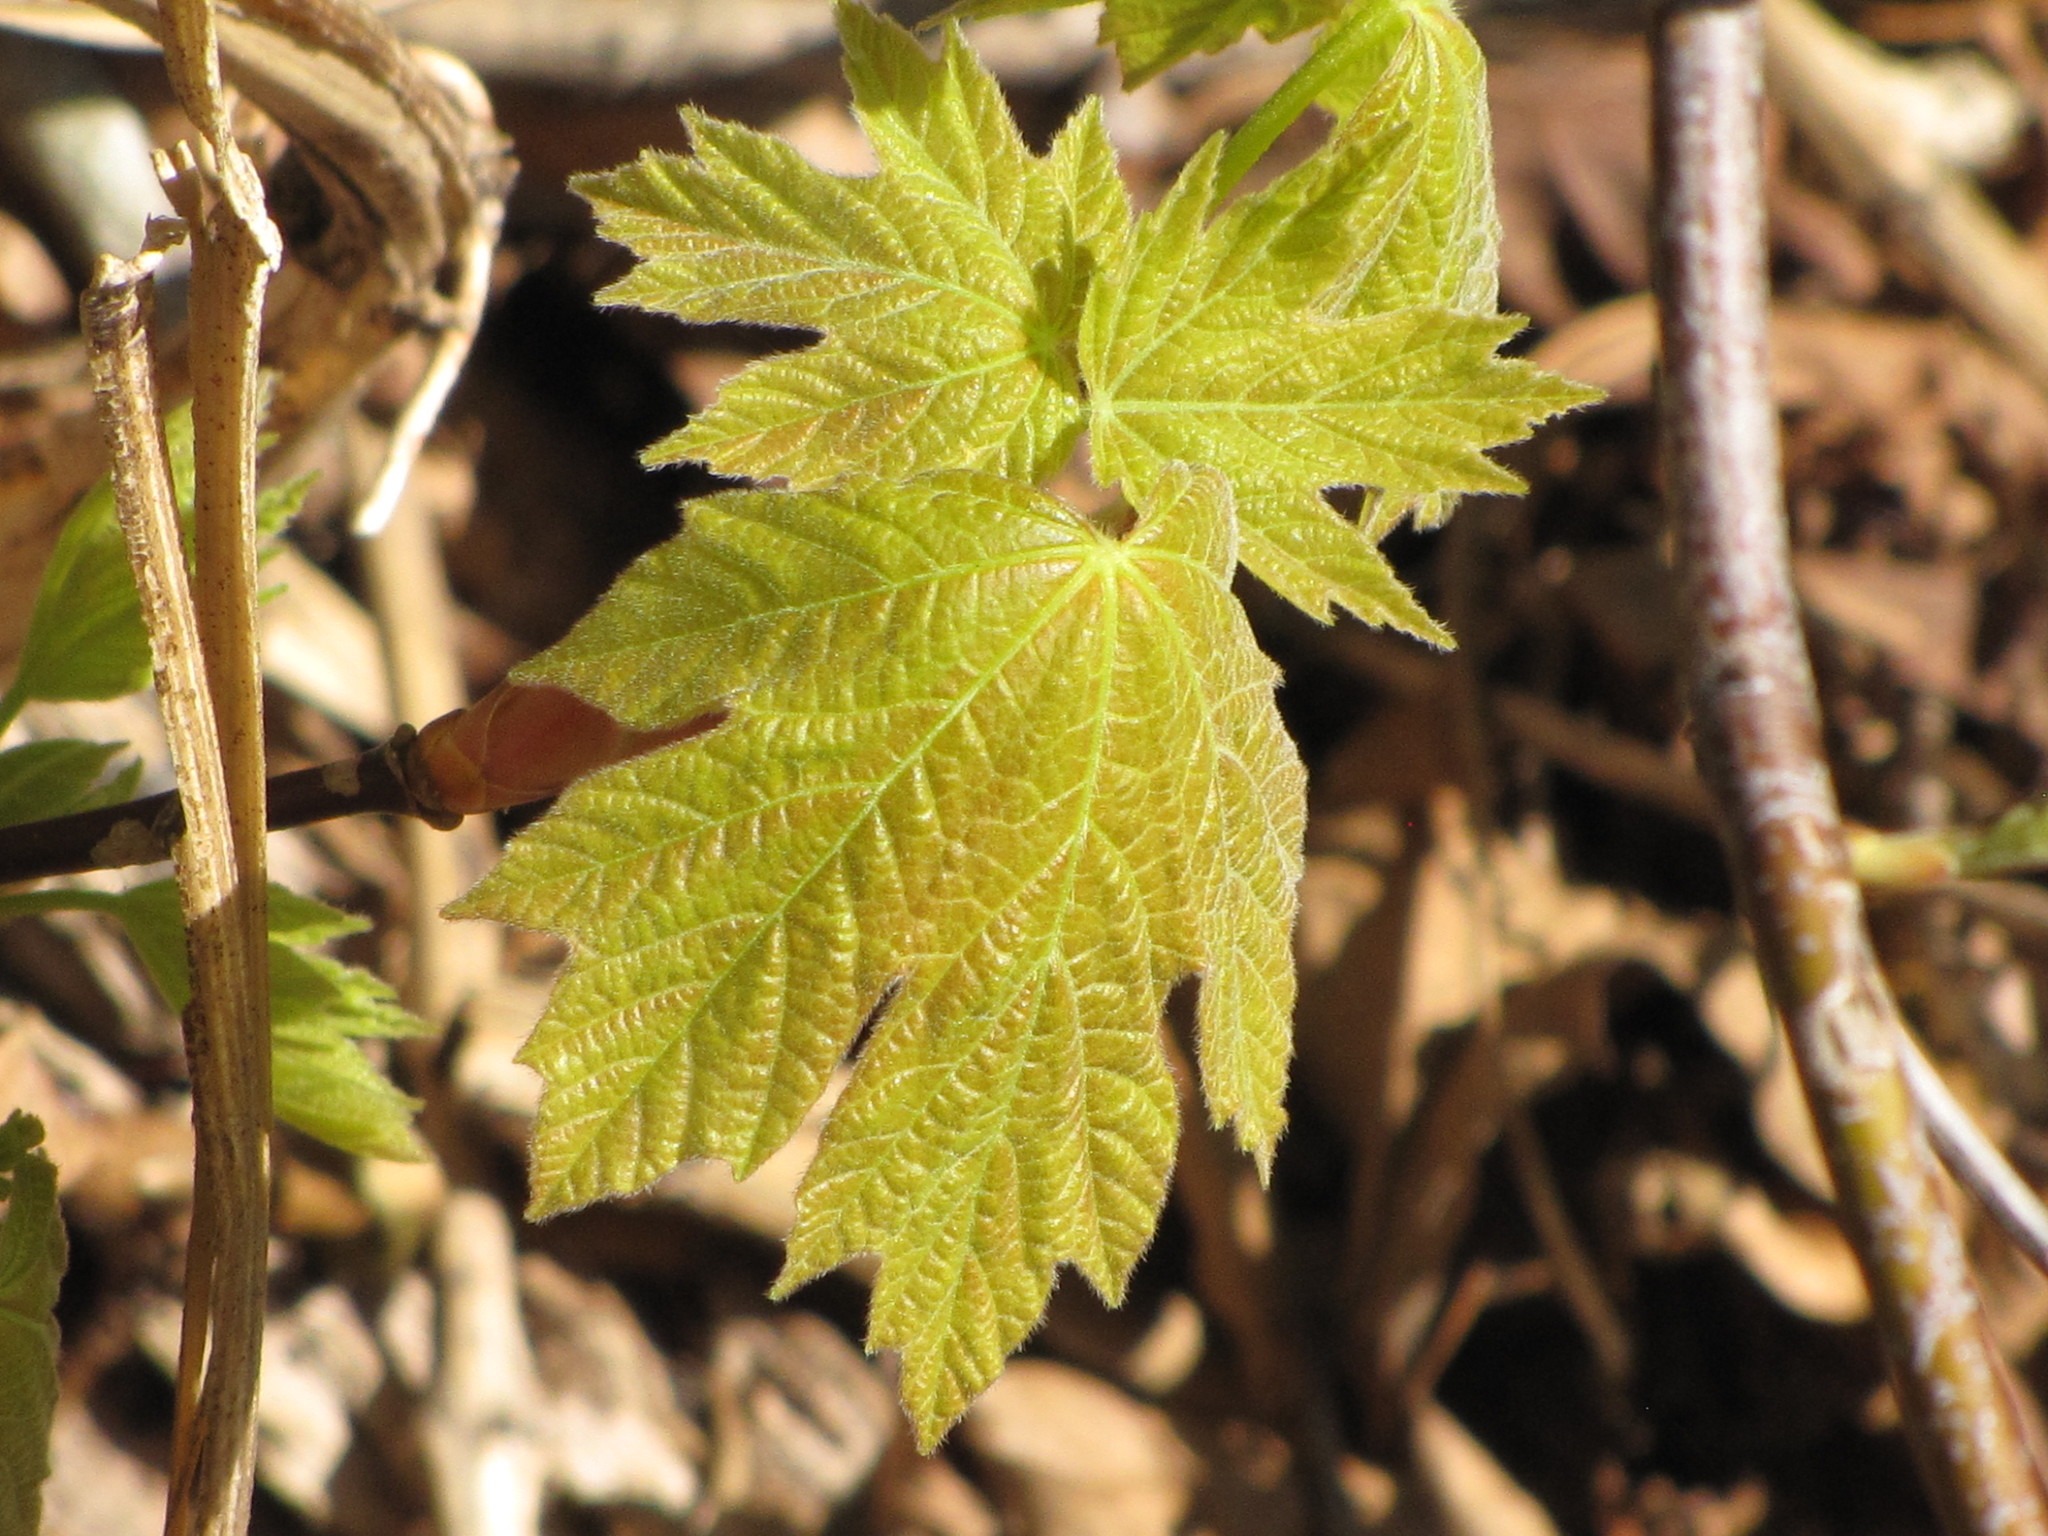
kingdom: Plantae
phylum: Tracheophyta
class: Magnoliopsida
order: Sapindales
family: Sapindaceae
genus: Acer
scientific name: Acer macrophyllum
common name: Oregon maple
